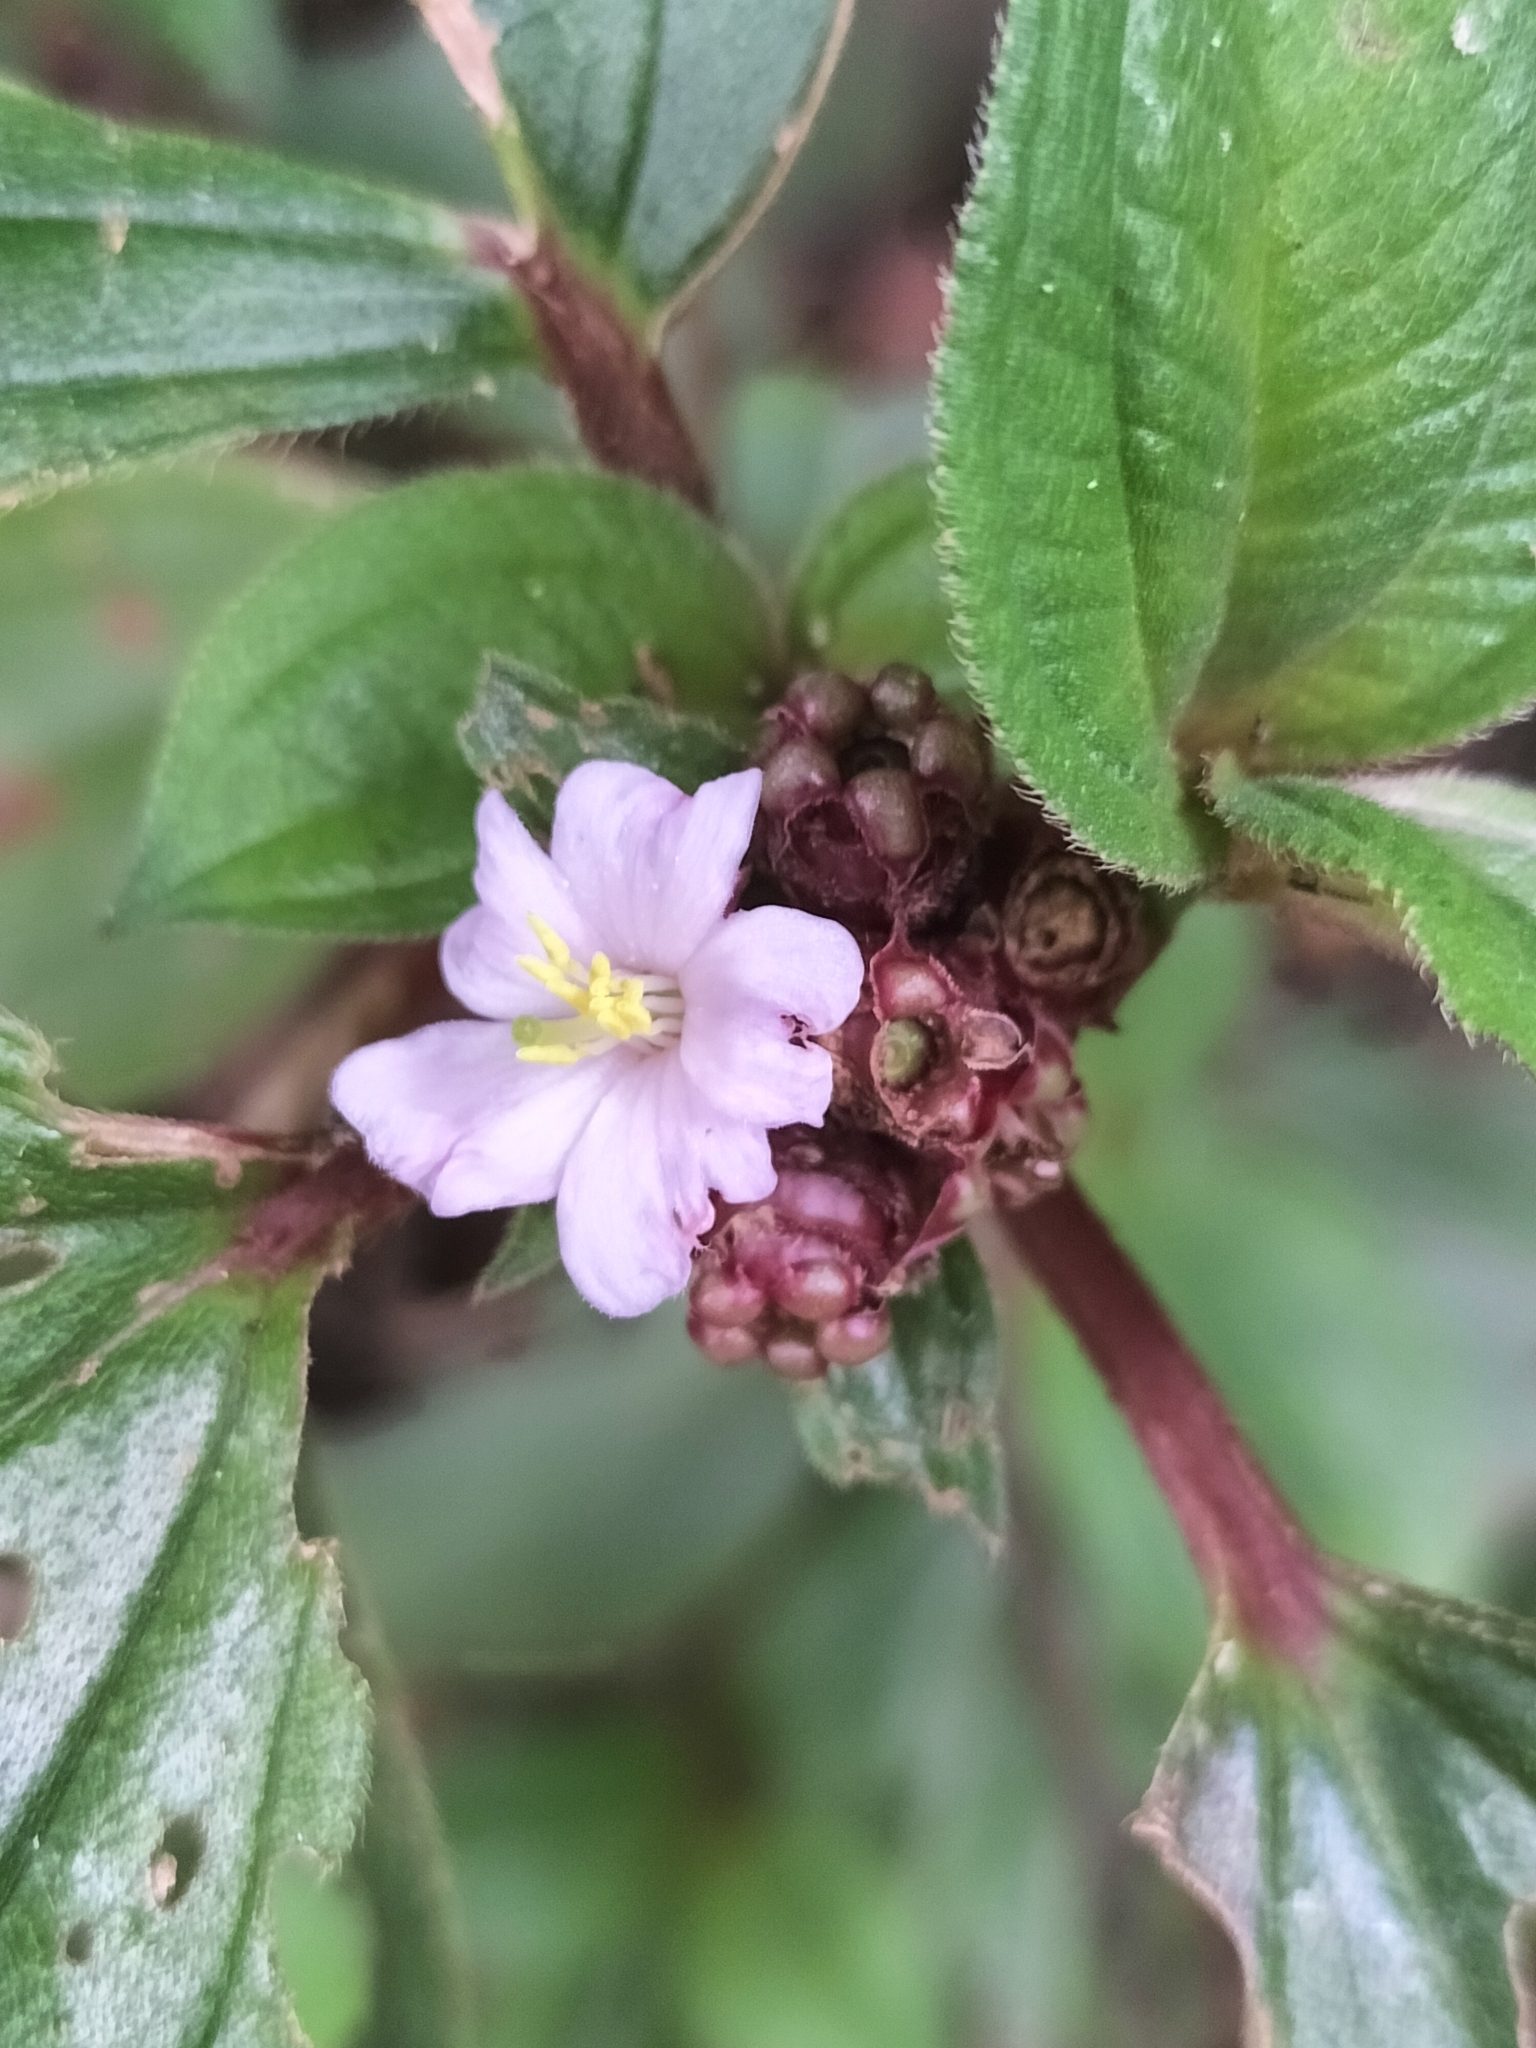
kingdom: Plantae
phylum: Tracheophyta
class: Magnoliopsida
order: Myrtales
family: Melastomataceae
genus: Tristemma
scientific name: Tristemma mauritianum
